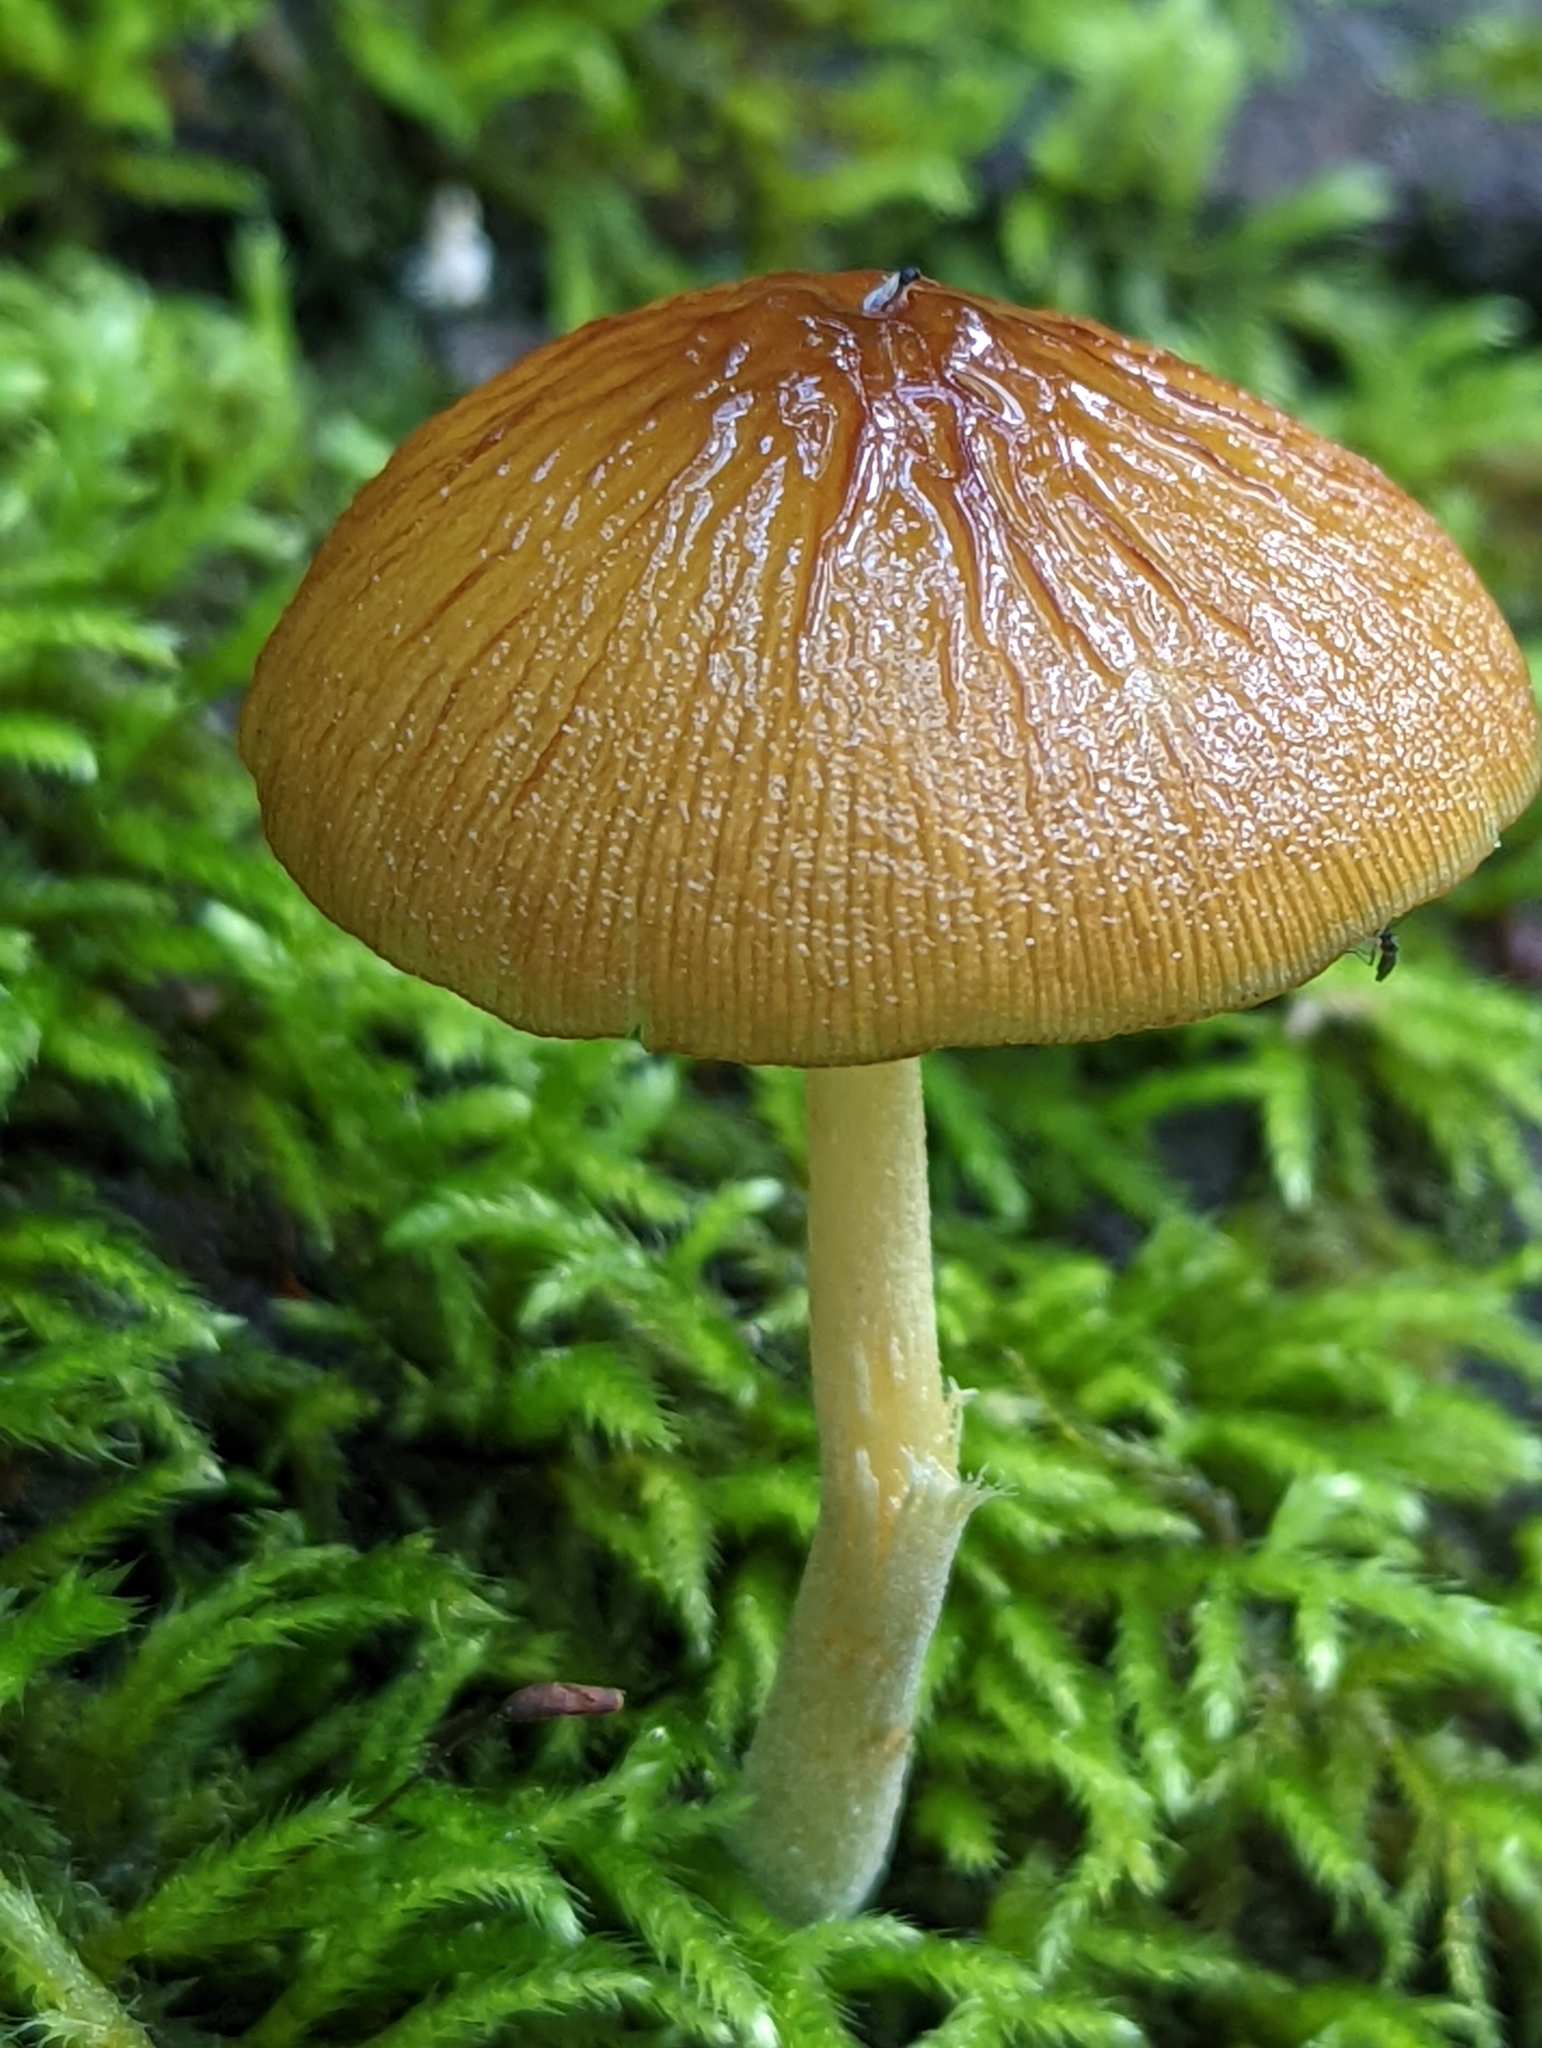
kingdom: Fungi
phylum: Basidiomycota
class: Agaricomycetes
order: Agaricales
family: Bolbitiaceae
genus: Bolbitius
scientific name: Bolbitius callistus
